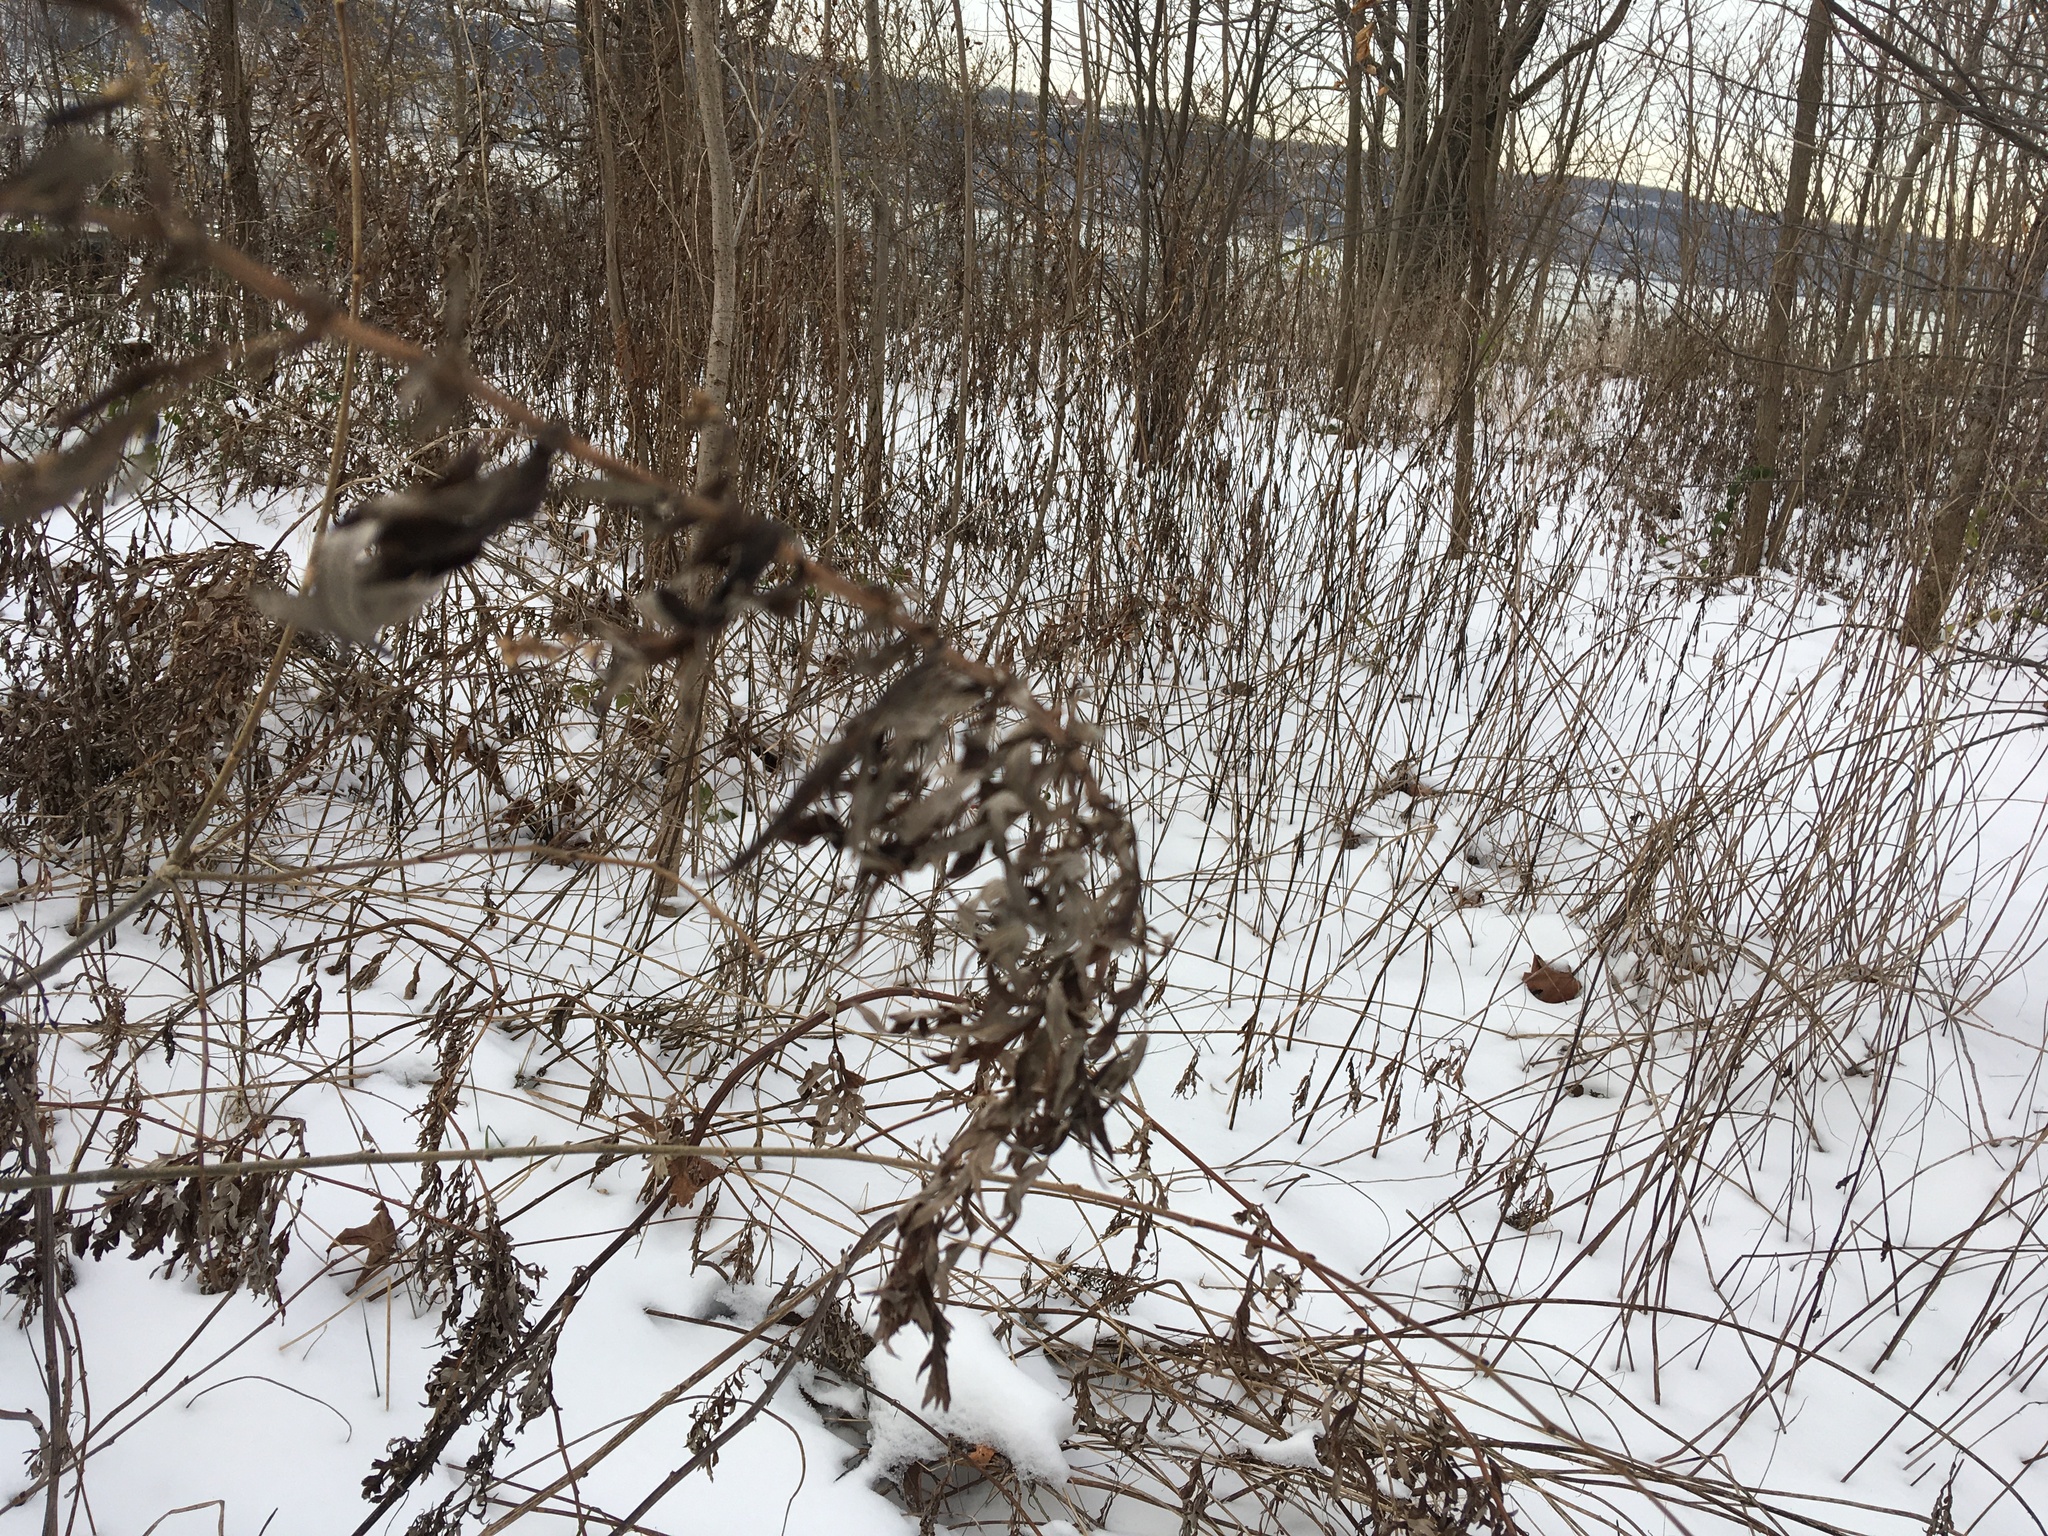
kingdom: Plantae
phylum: Tracheophyta
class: Magnoliopsida
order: Asterales
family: Asteraceae
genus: Artemisia
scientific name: Artemisia vulgaris
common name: Mugwort
